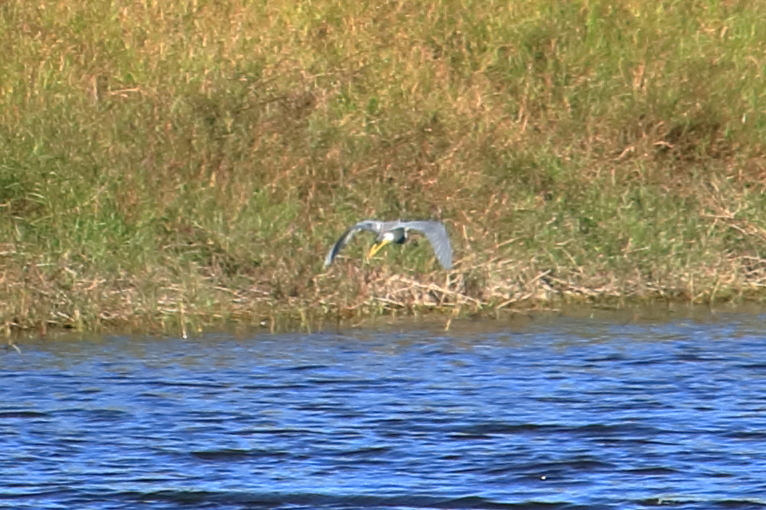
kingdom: Animalia
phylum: Chordata
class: Aves
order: Pelecaniformes
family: Ardeidae
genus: Egretta
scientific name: Egretta tricolor
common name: Tricolored heron
